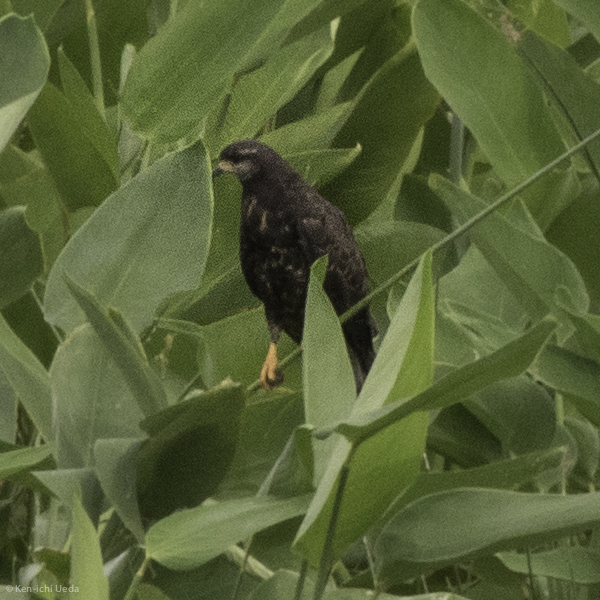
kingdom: Animalia
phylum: Chordata
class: Aves
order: Accipitriformes
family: Accipitridae
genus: Rostrhamus
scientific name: Rostrhamus sociabilis
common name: Snail kite
